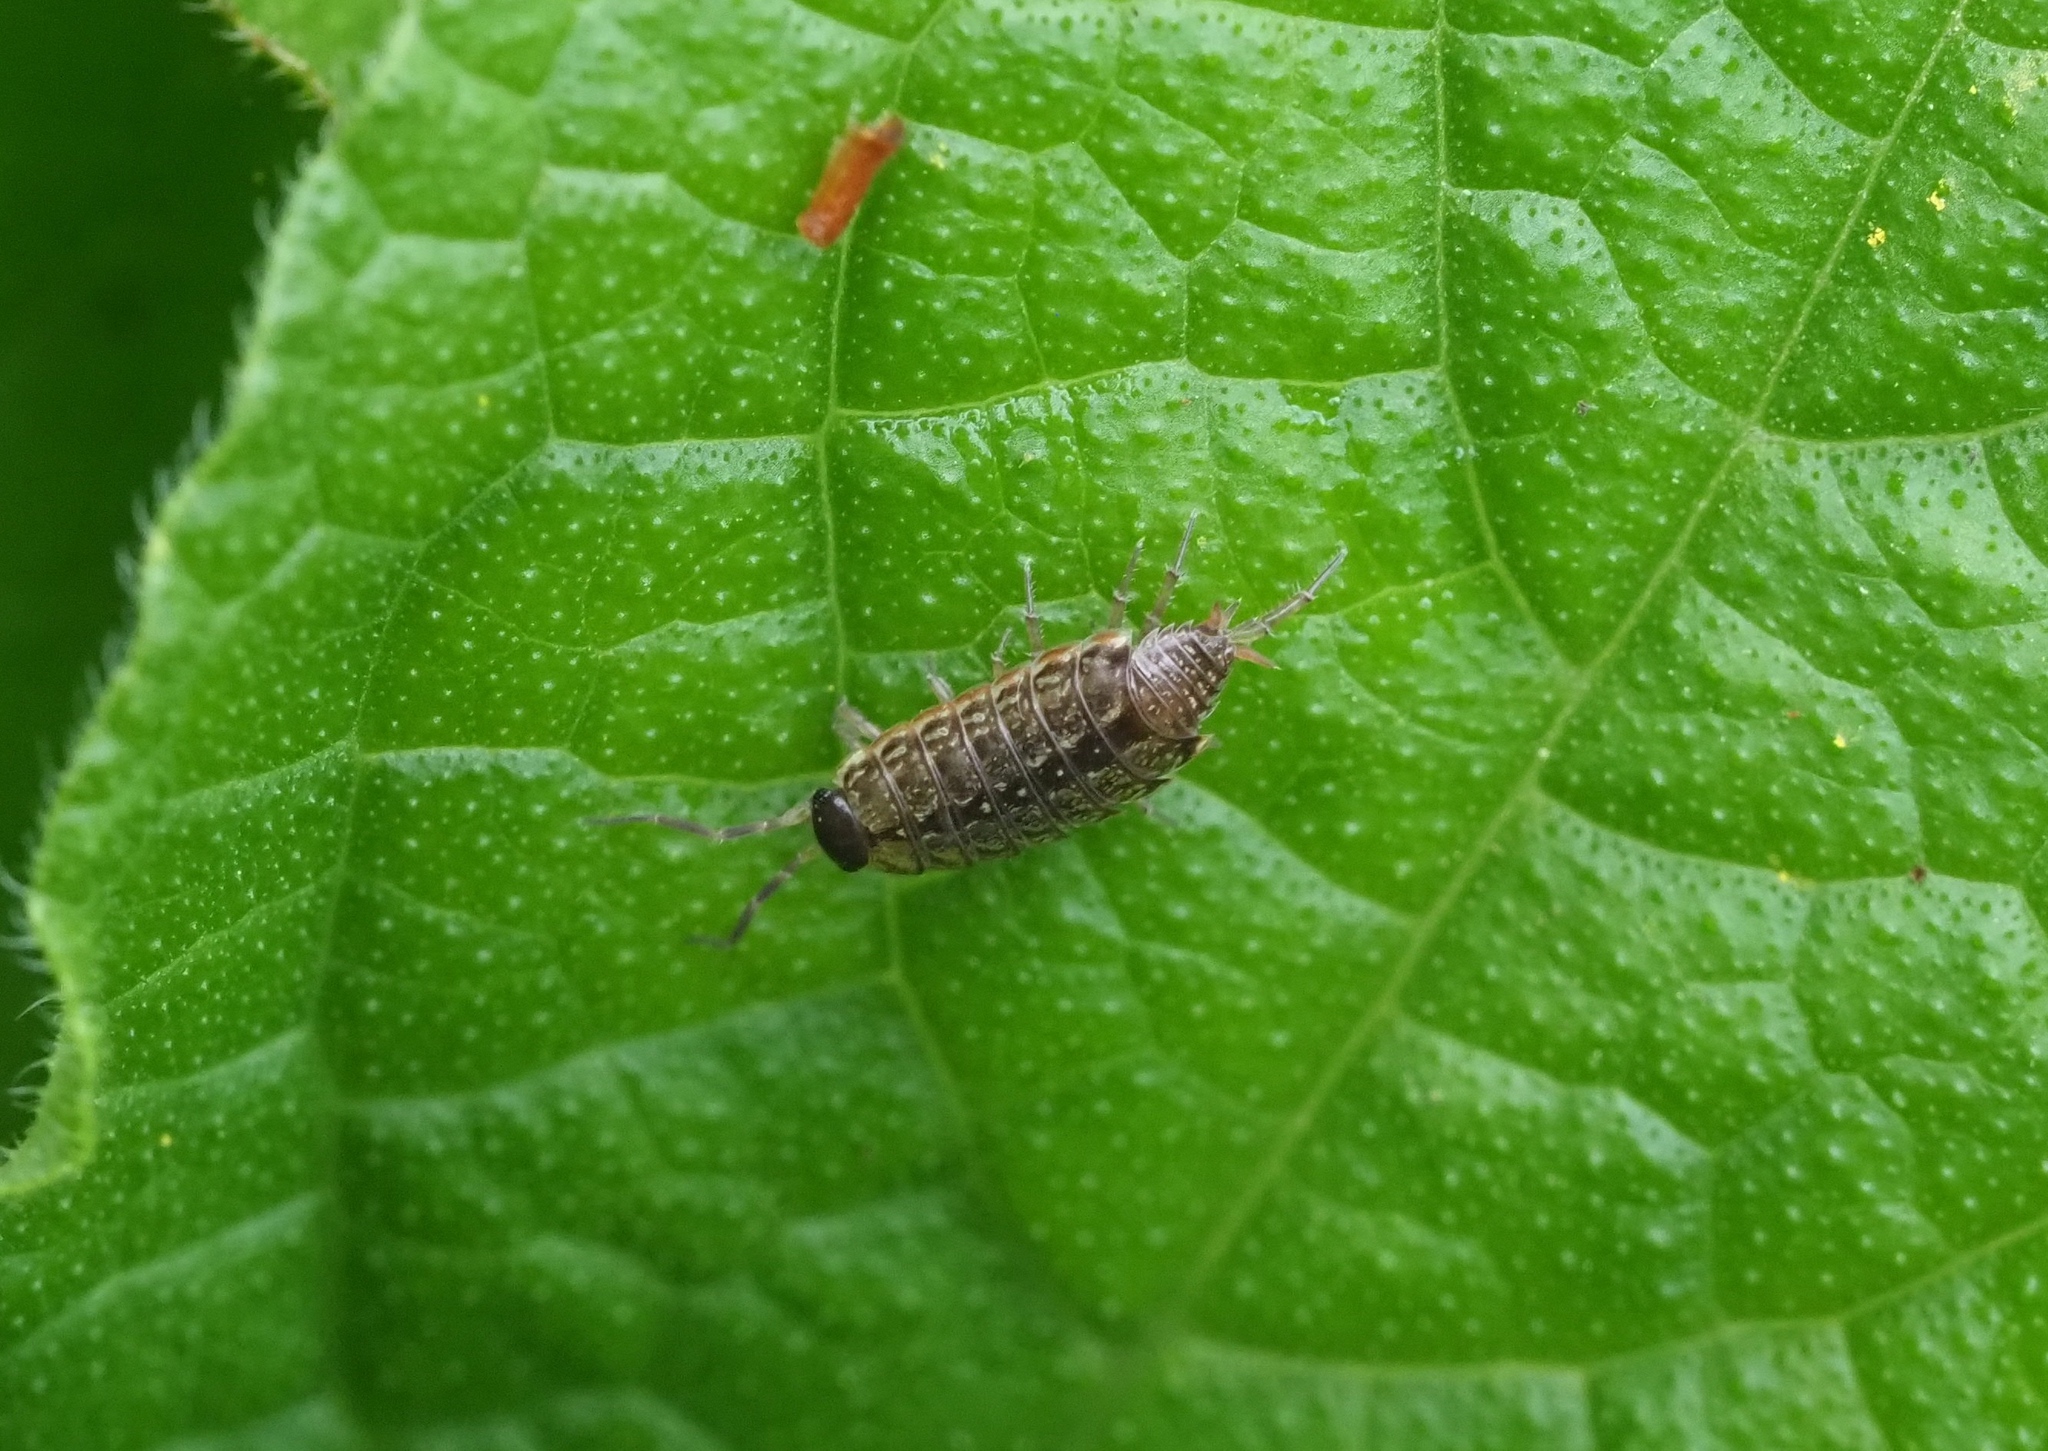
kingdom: Animalia
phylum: Arthropoda
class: Malacostraca
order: Isopoda
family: Philosciidae
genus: Philoscia
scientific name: Philoscia muscorum
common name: Common striped woodlouse
